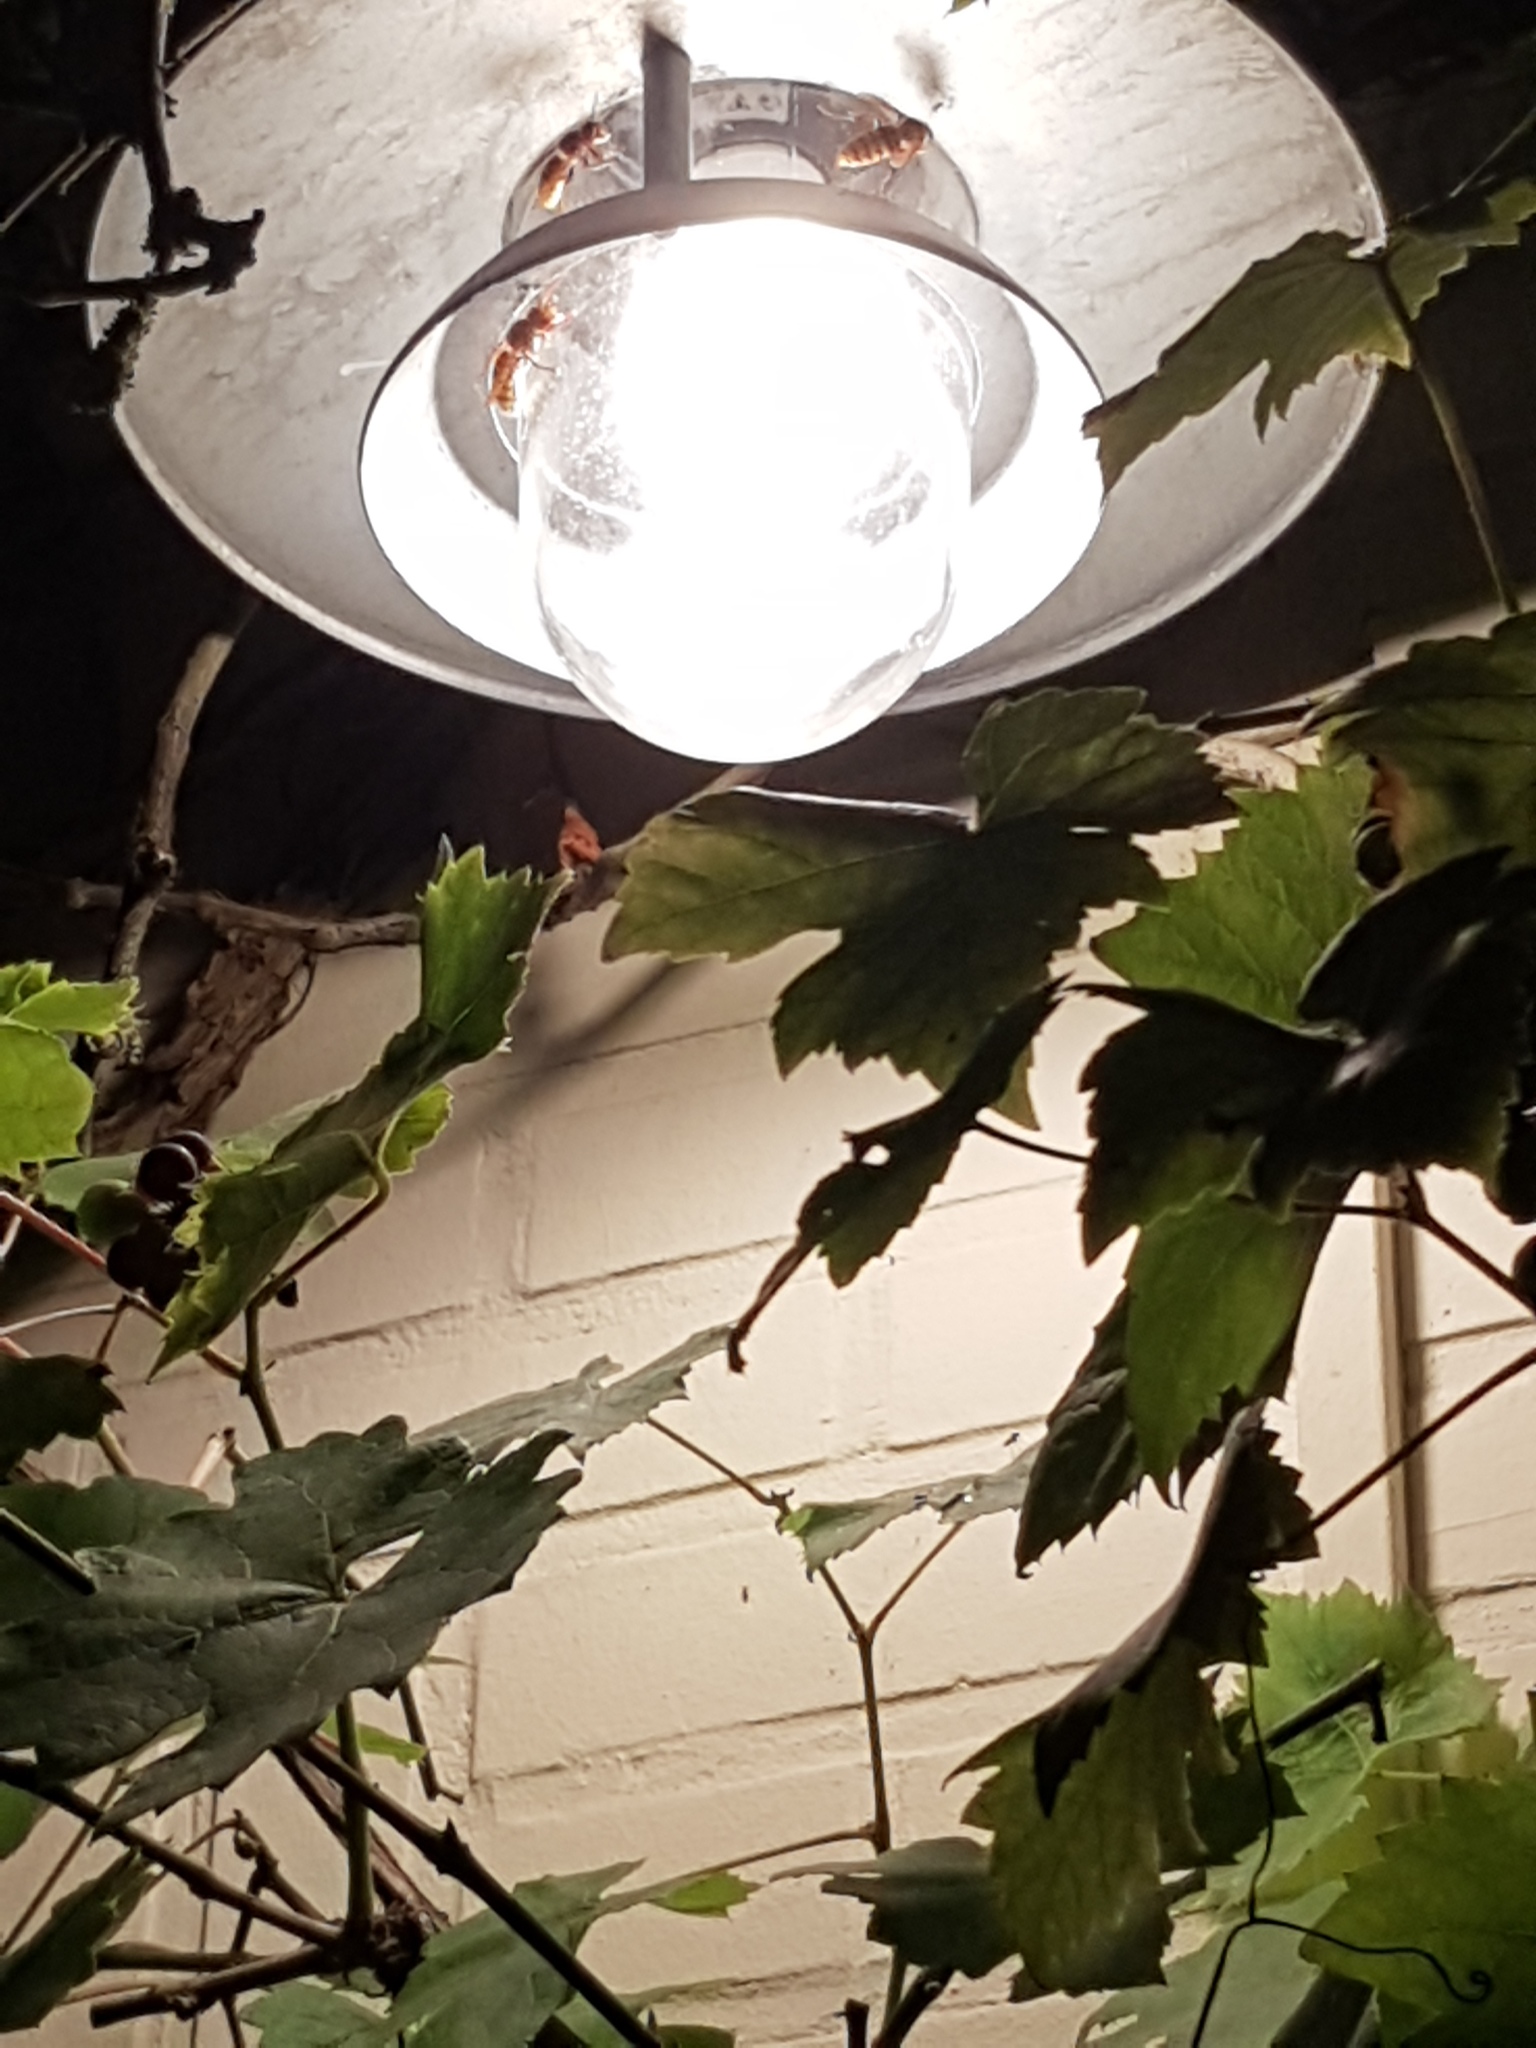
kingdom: Animalia
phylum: Arthropoda
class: Insecta
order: Hymenoptera
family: Vespidae
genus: Vespa
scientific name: Vespa crabro
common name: Hornet
